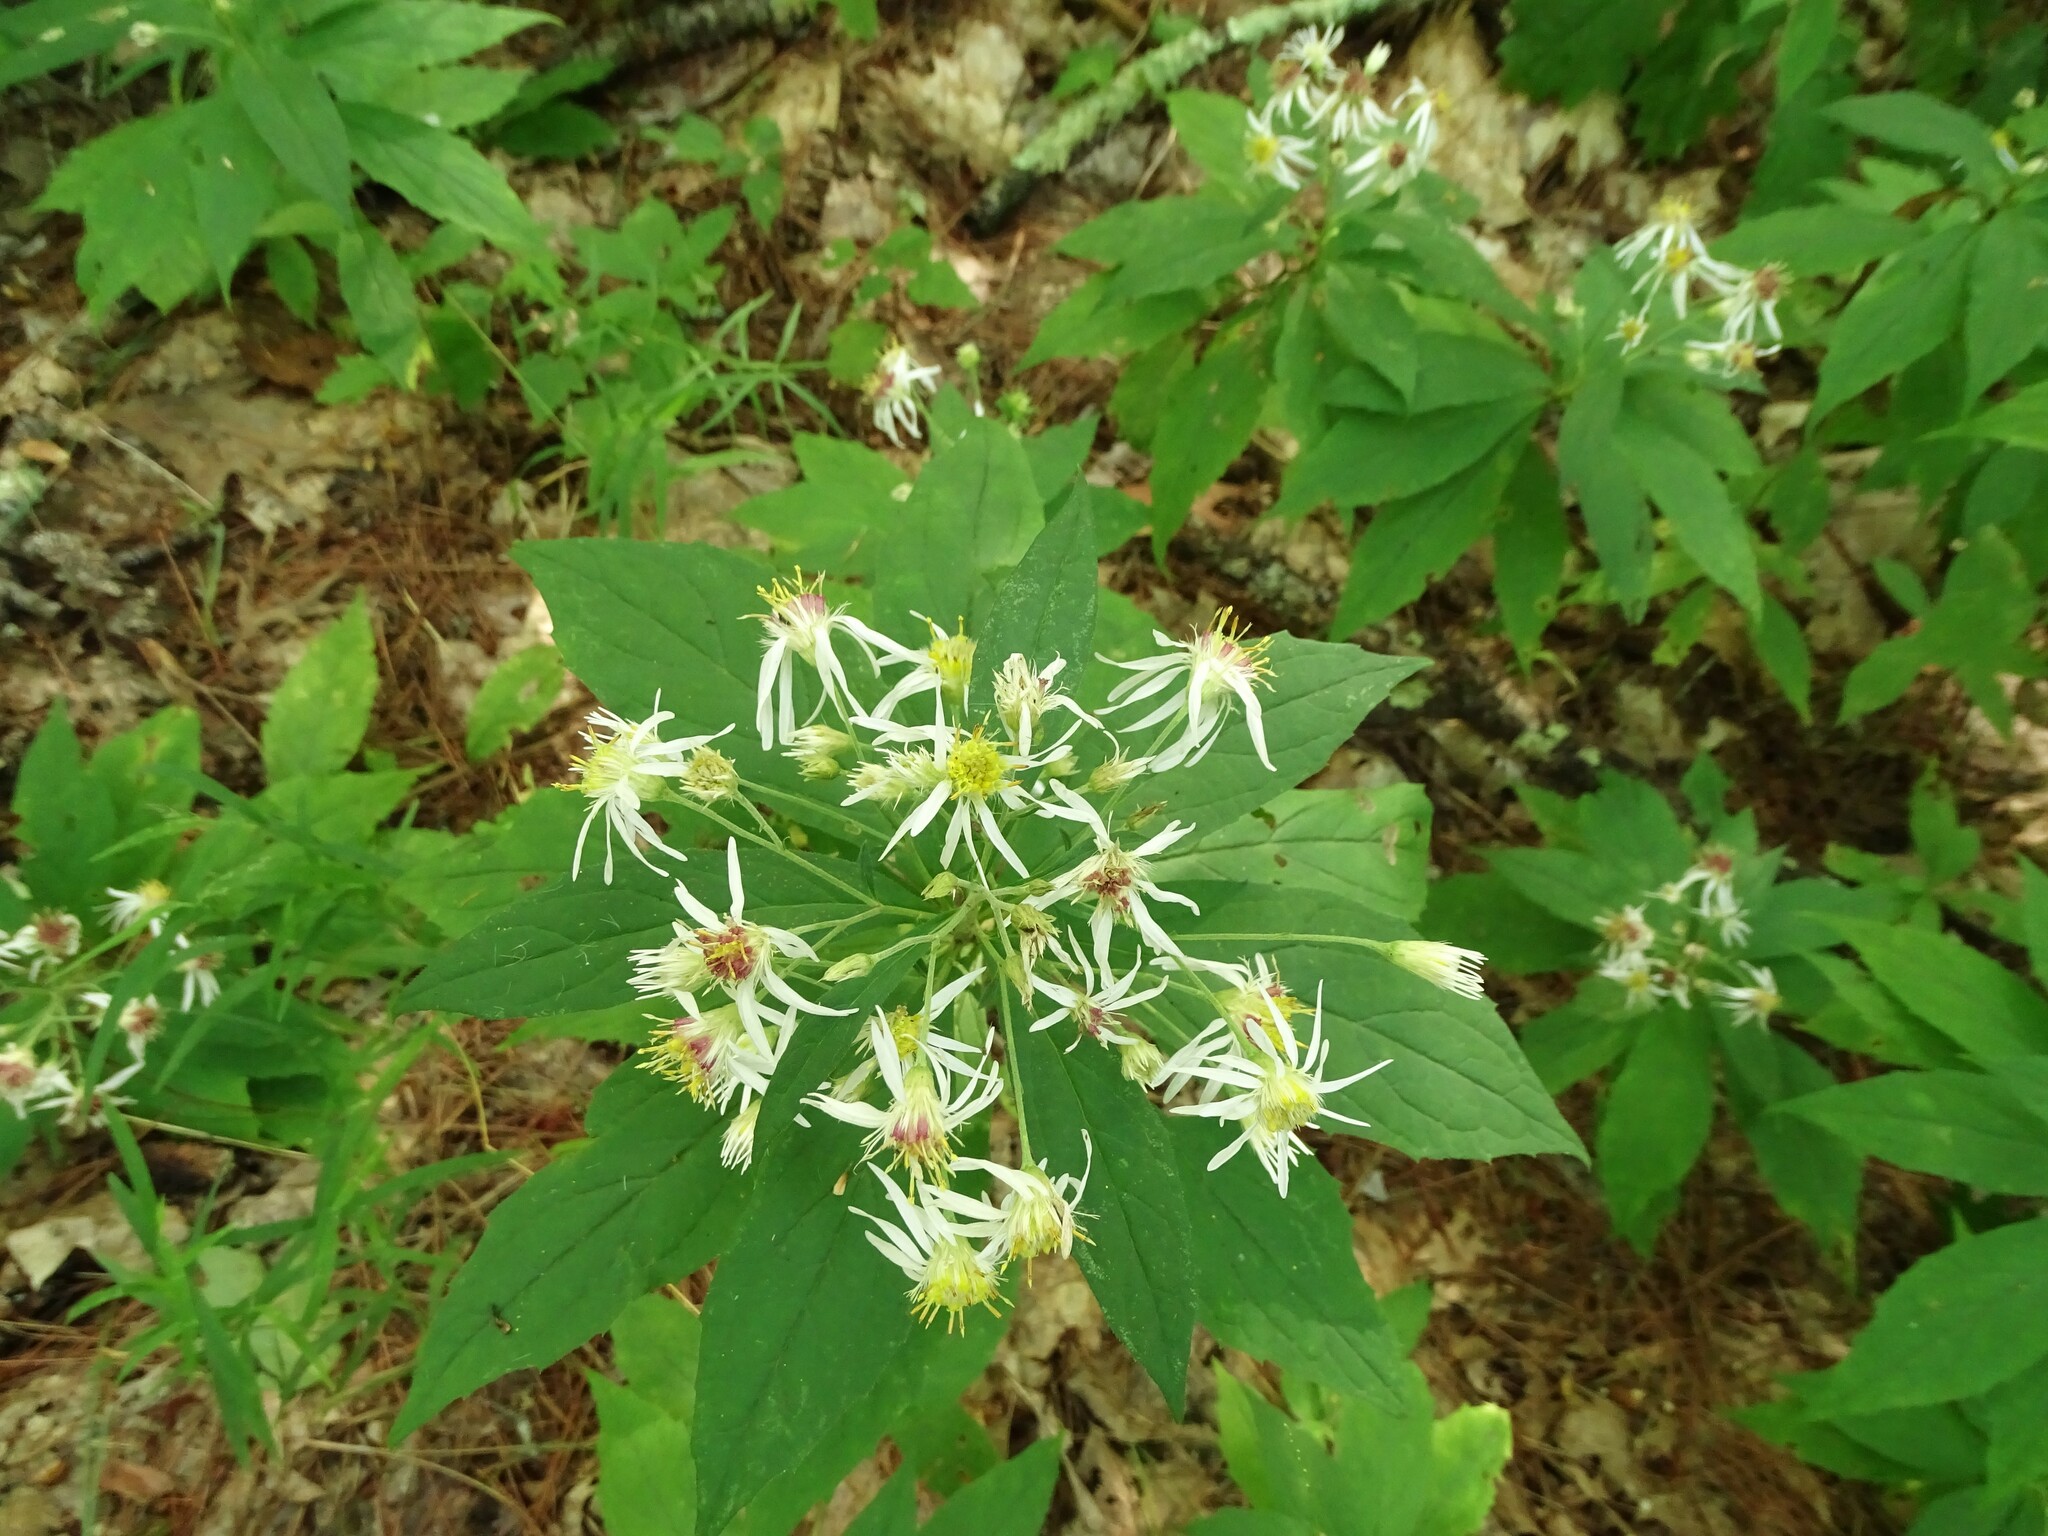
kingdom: Plantae
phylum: Tracheophyta
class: Magnoliopsida
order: Asterales
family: Asteraceae
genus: Oclemena
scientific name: Oclemena acuminata
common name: Mountain aster
